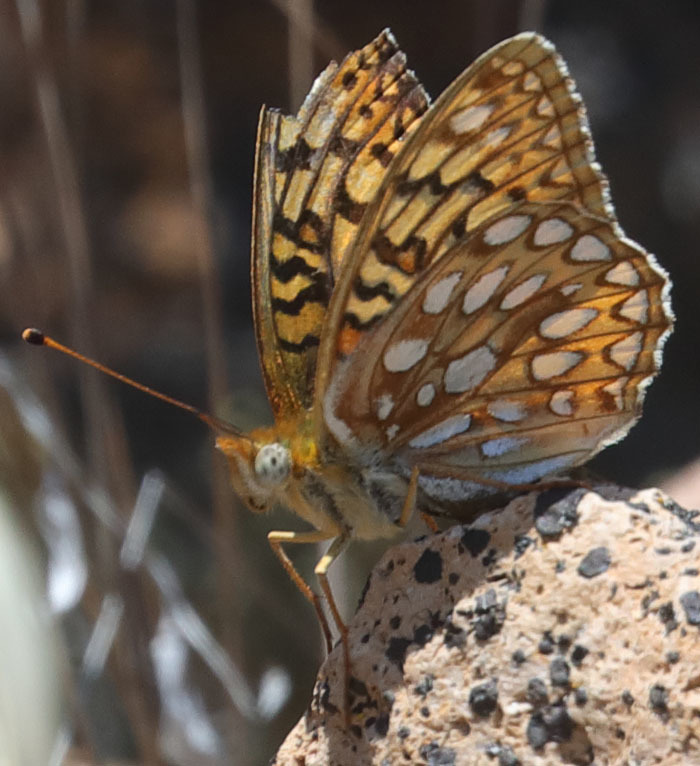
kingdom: Animalia
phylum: Arthropoda
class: Insecta
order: Lepidoptera
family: Nymphalidae
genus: Speyeria
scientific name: Speyeria callippe
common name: Callippe fritillary
